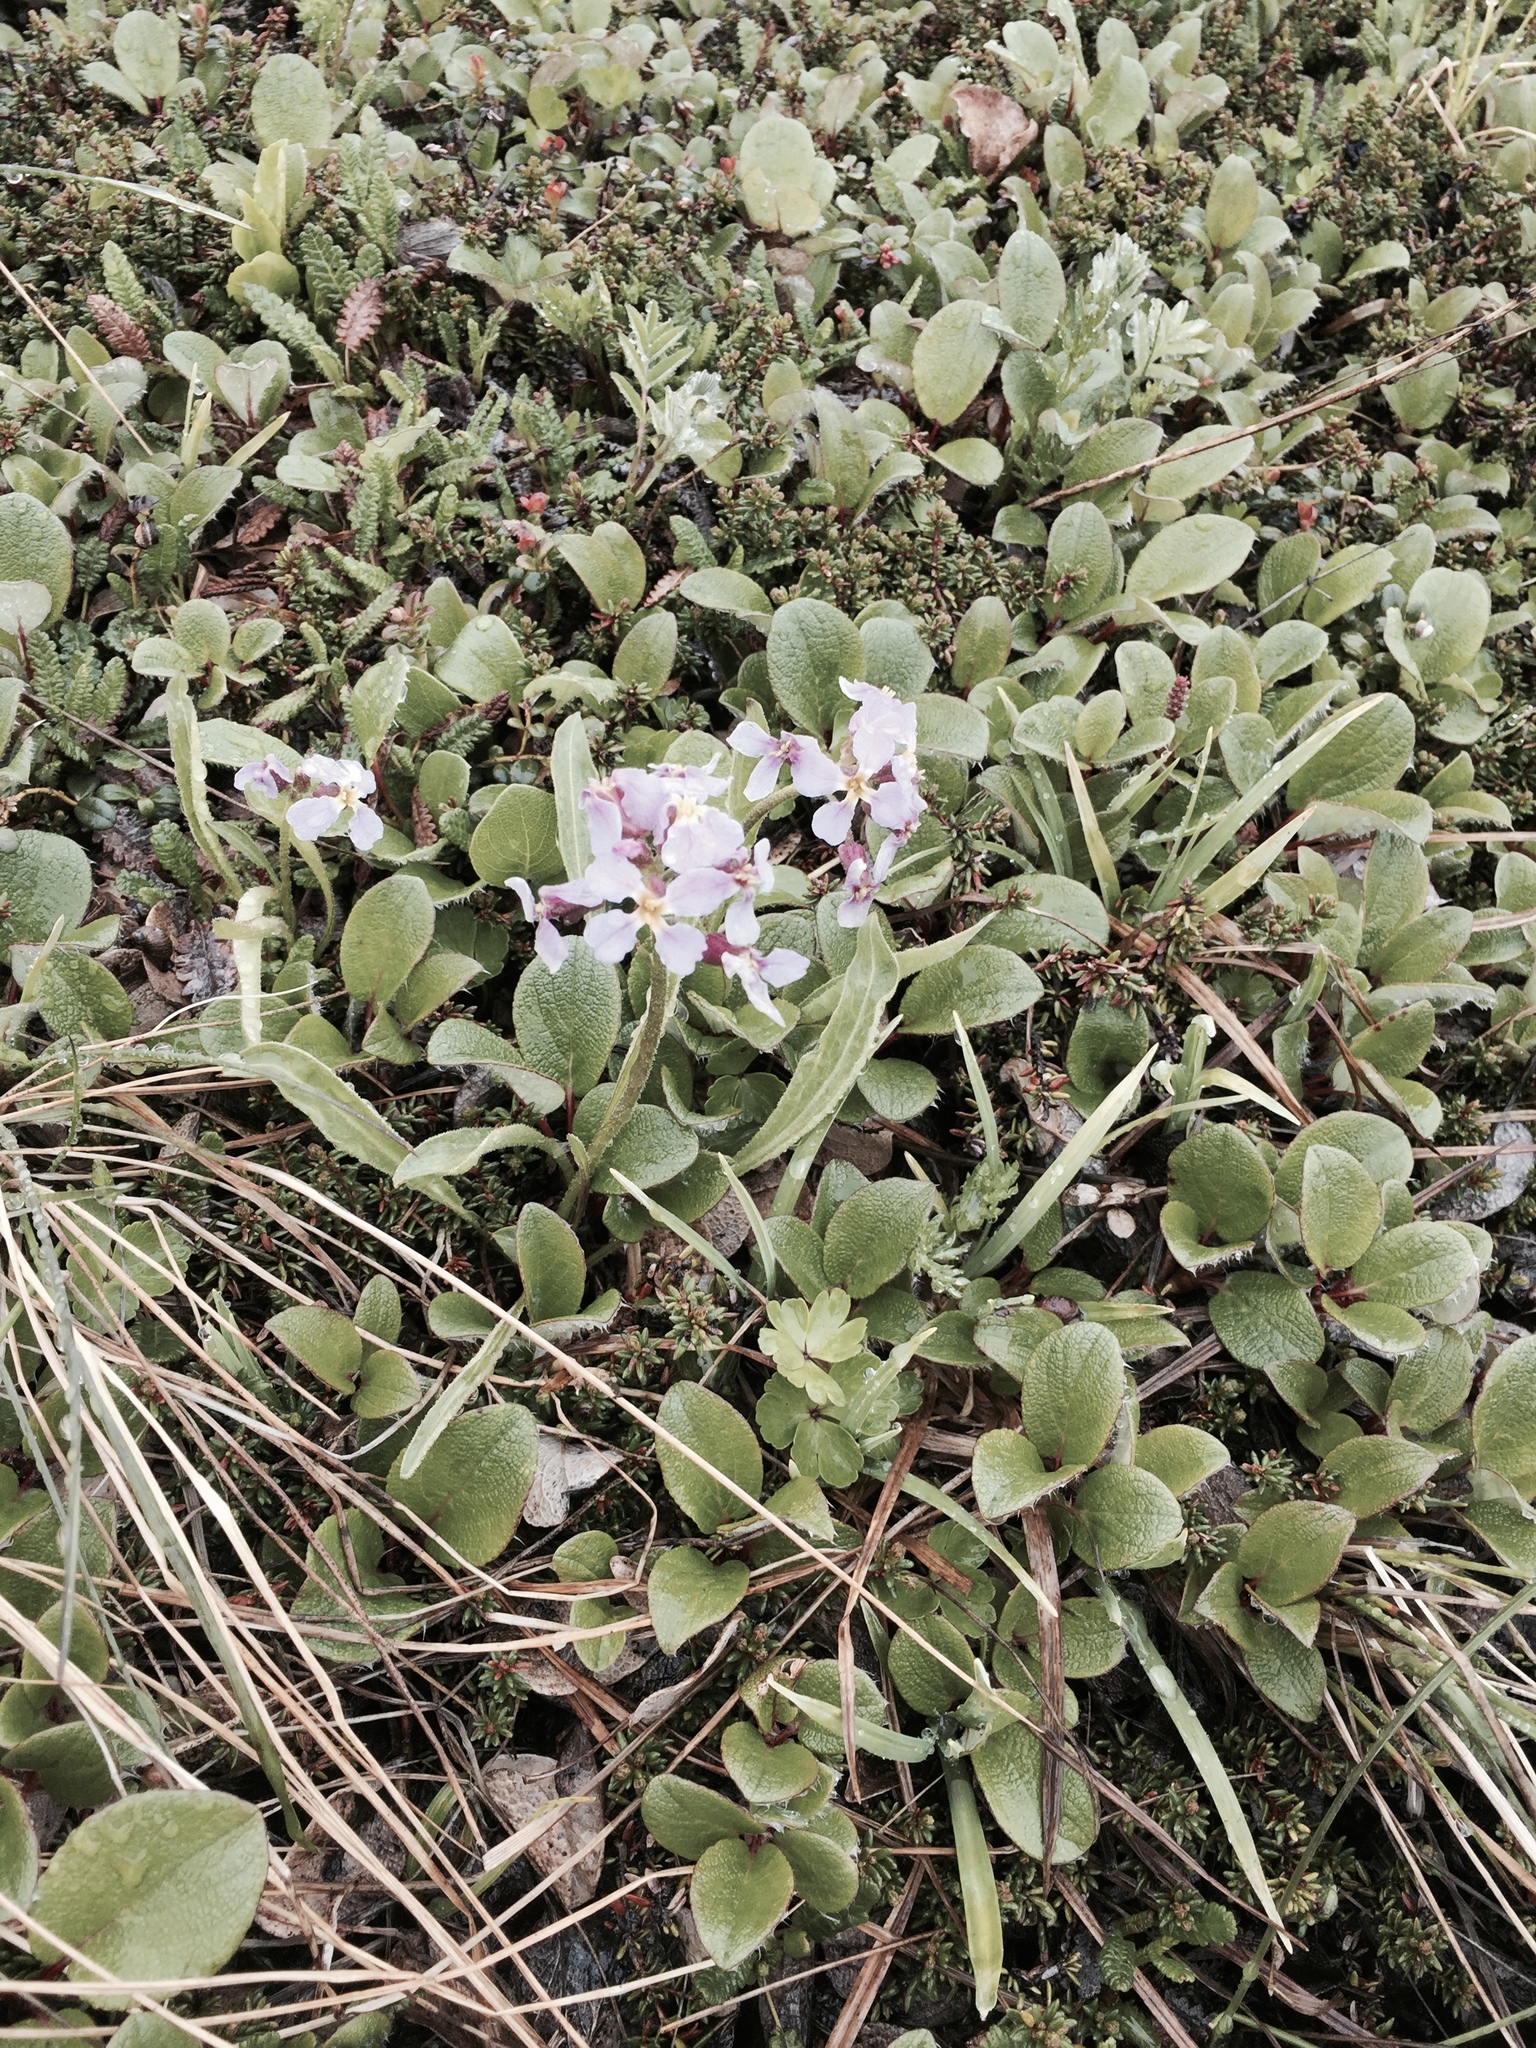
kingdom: Plantae
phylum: Tracheophyta
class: Magnoliopsida
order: Brassicales
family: Brassicaceae
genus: Parrya
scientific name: Parrya nudicaulis
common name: Naked-stemmed false wallflower
